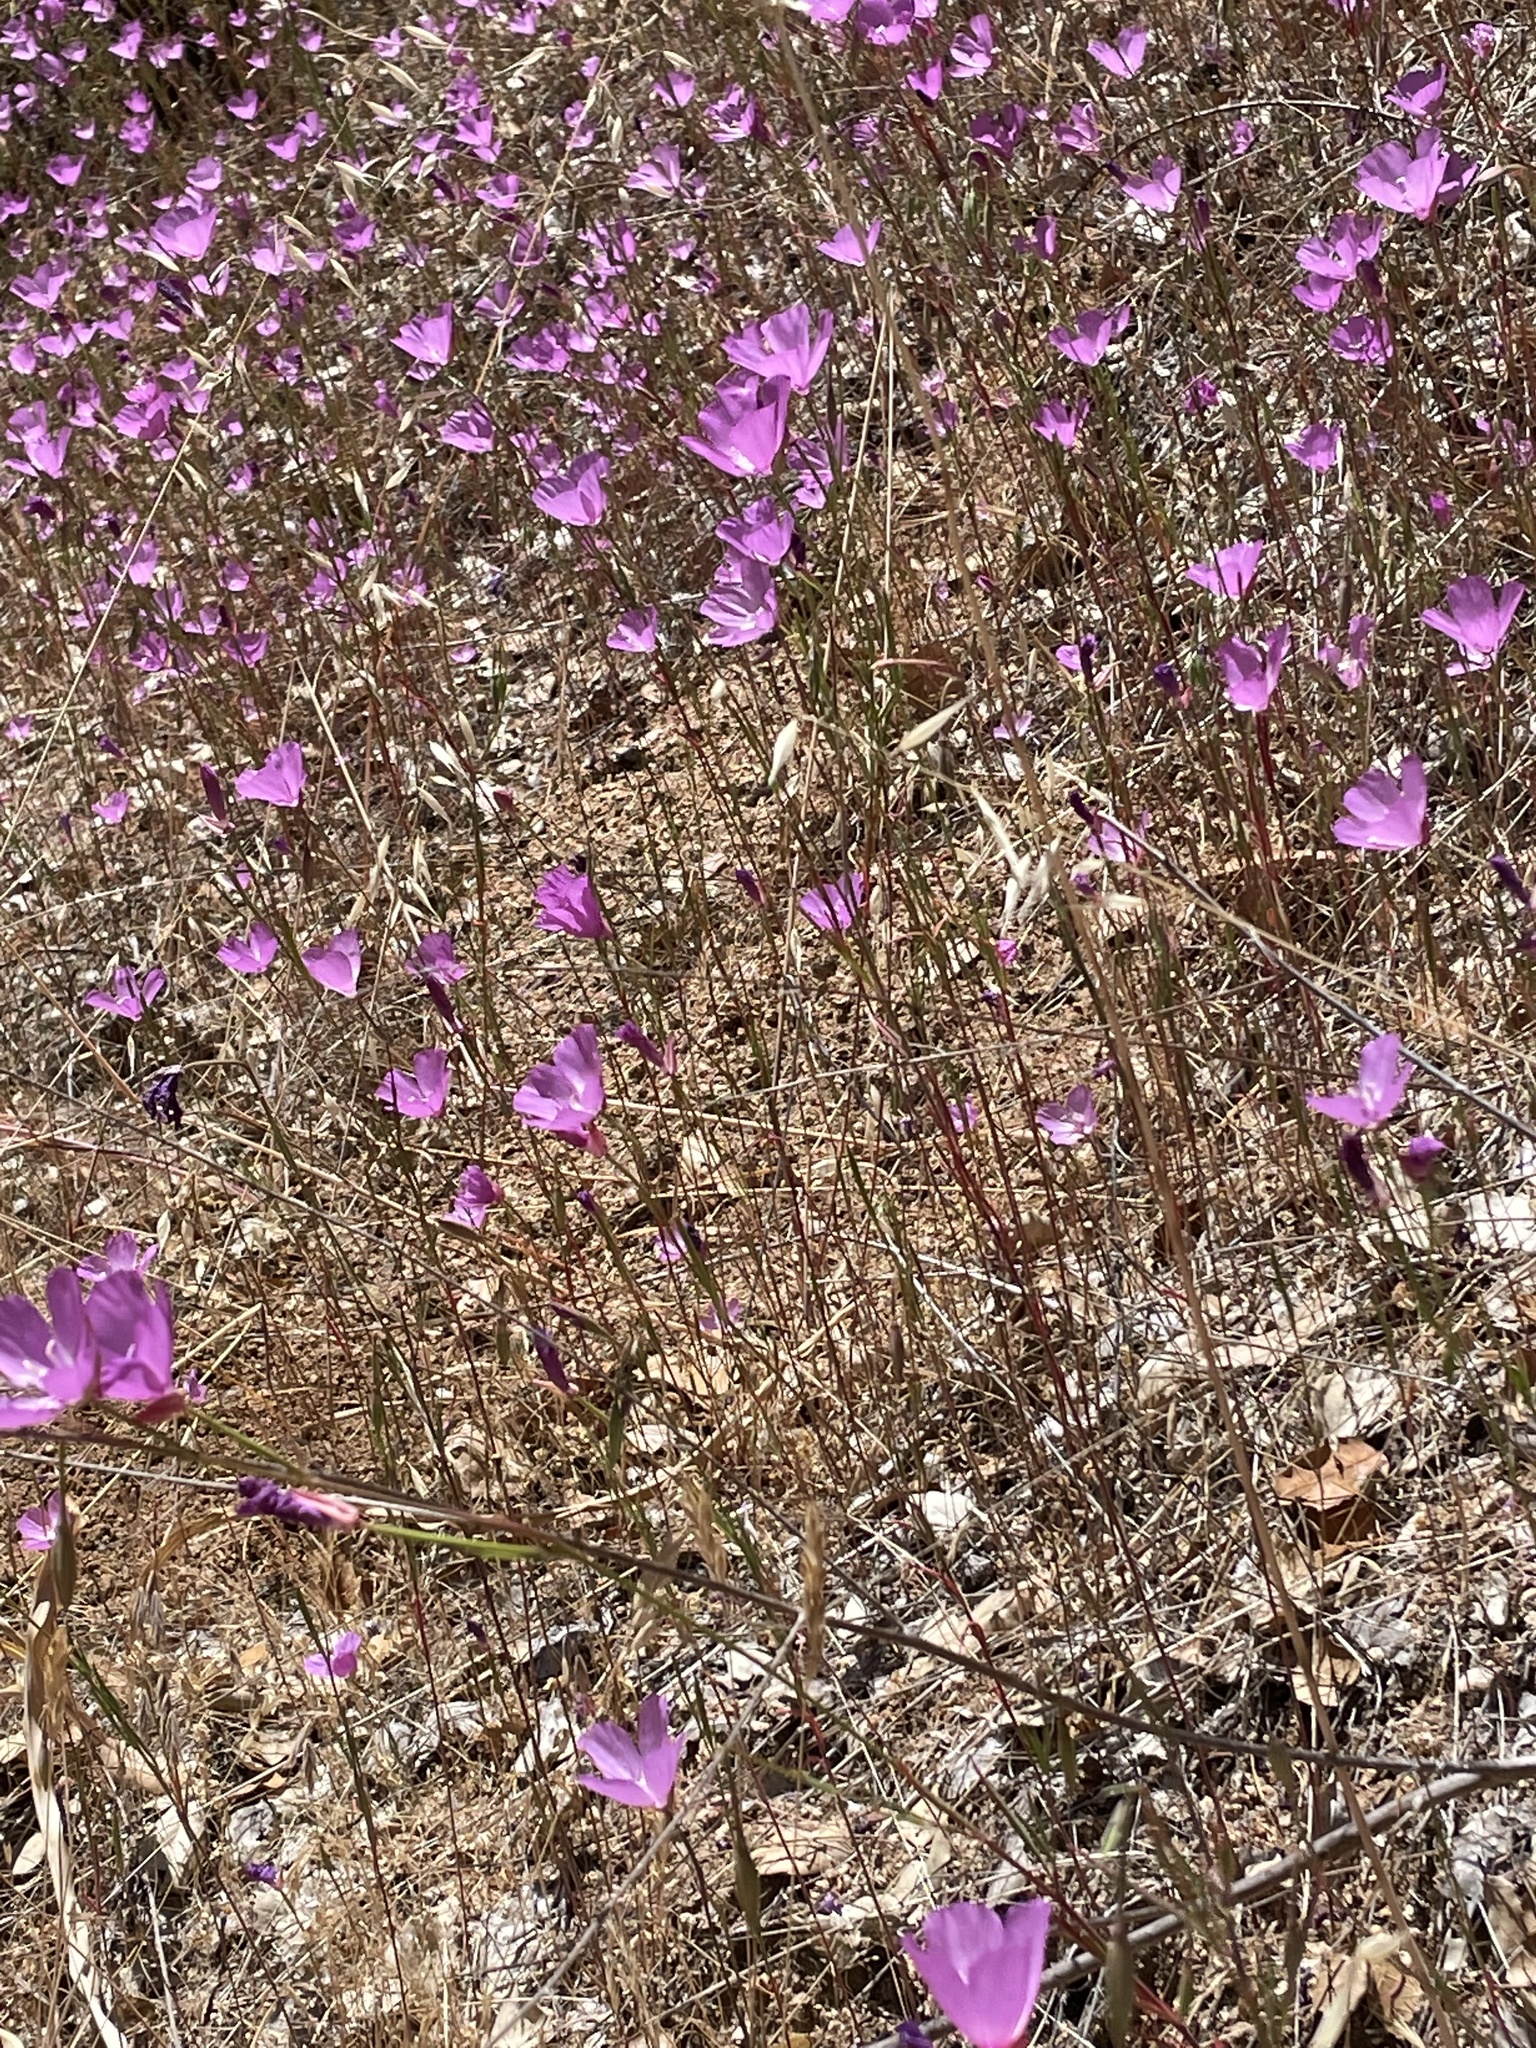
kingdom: Plantae
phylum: Tracheophyta
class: Magnoliopsida
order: Myrtales
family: Onagraceae
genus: Clarkia
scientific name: Clarkia lewisii
